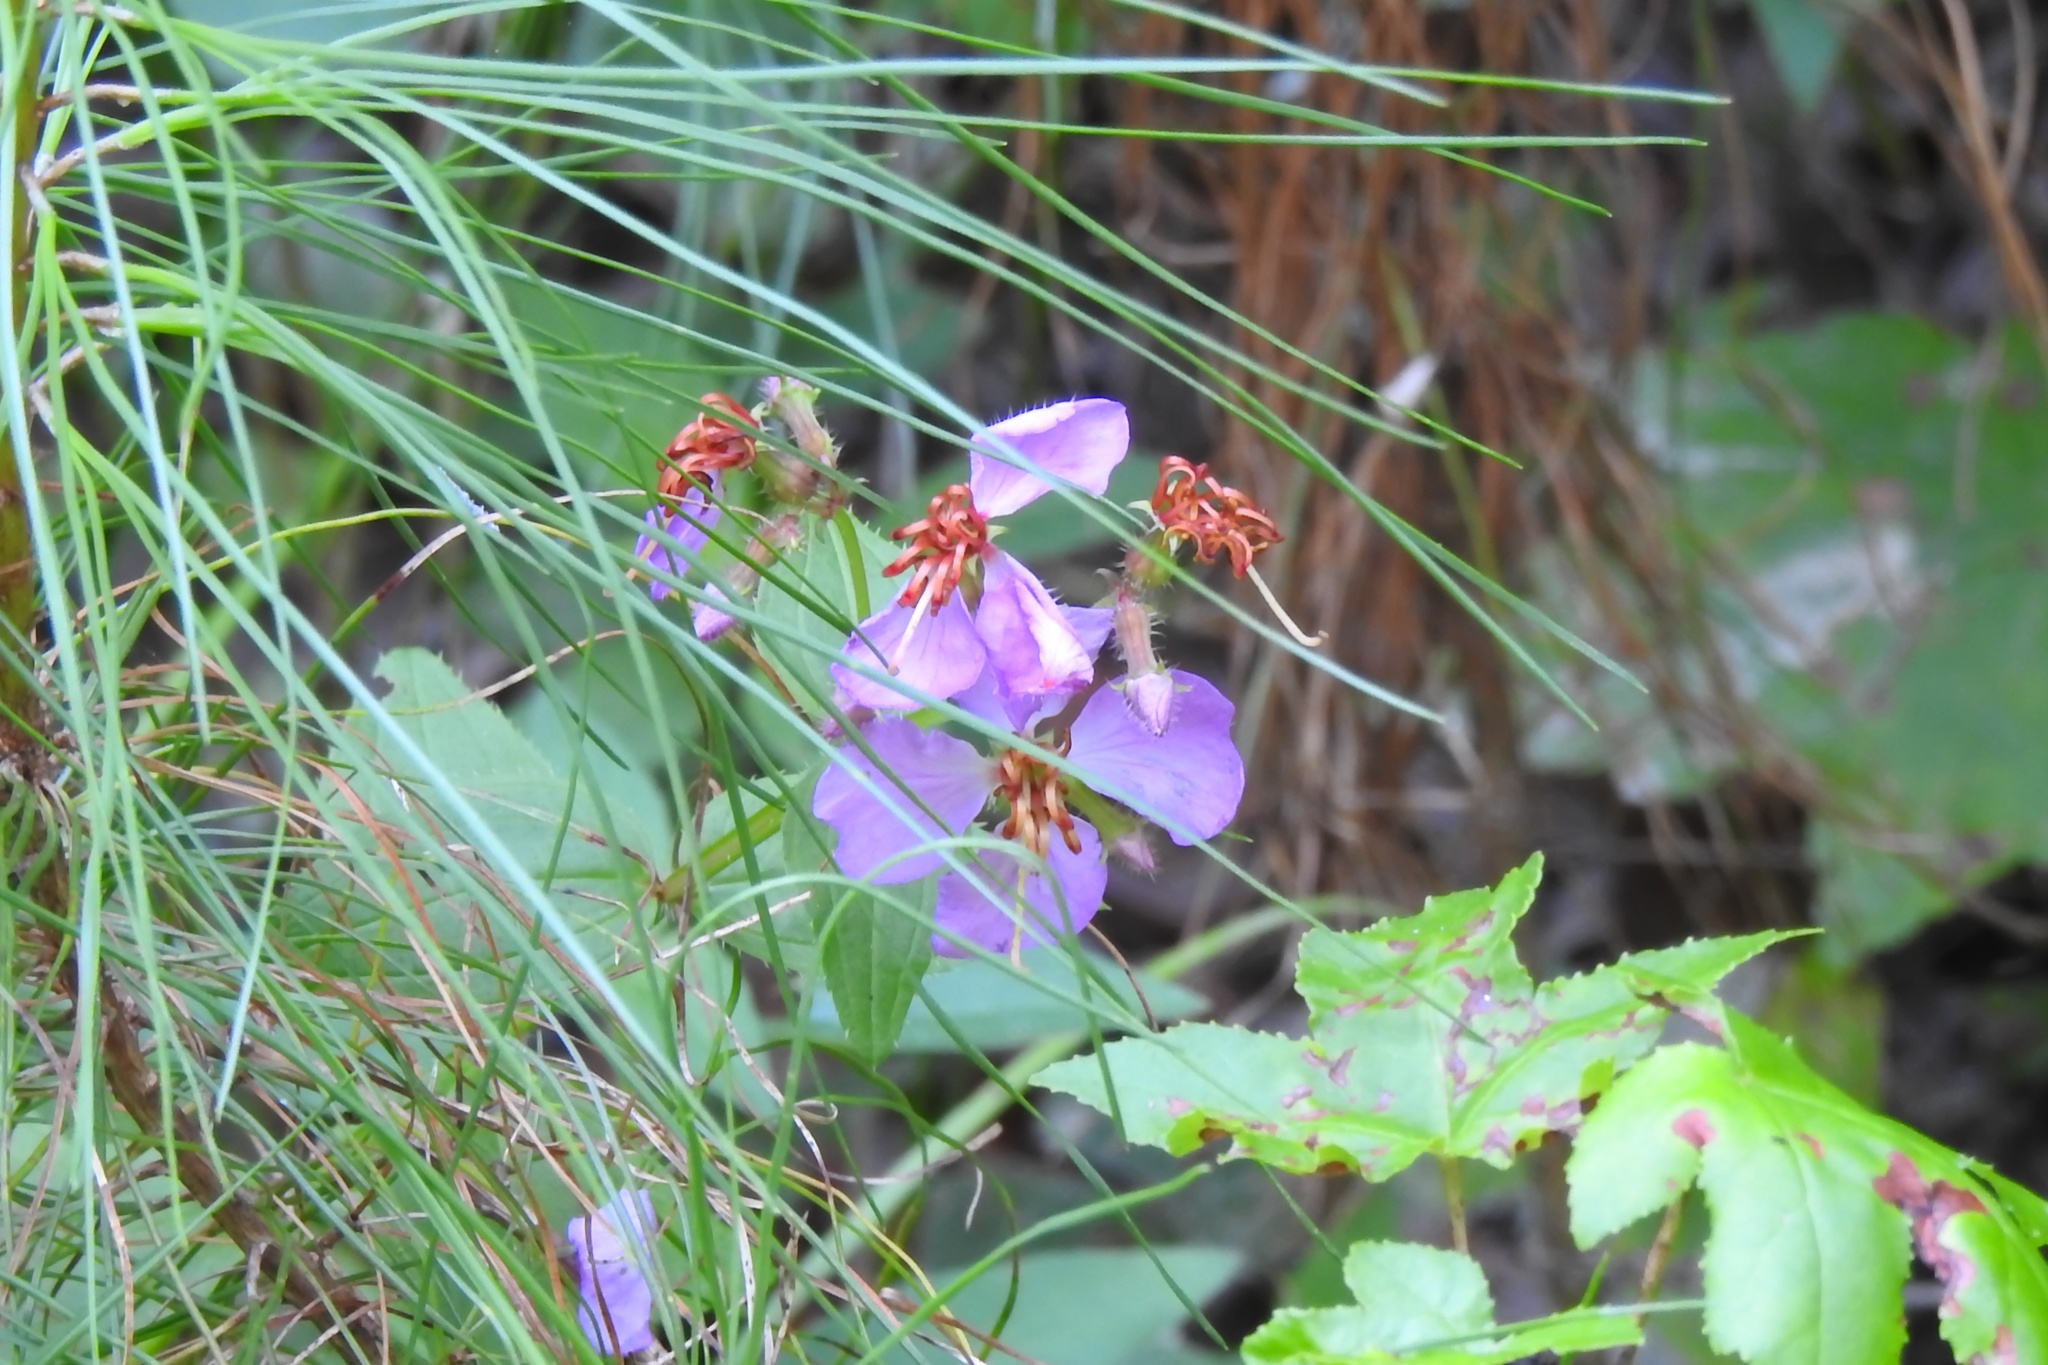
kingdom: Plantae
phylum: Tracheophyta
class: Magnoliopsida
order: Myrtales
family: Melastomataceae
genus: Rhexia
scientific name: Rhexia virginica
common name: Common meadow beauty
